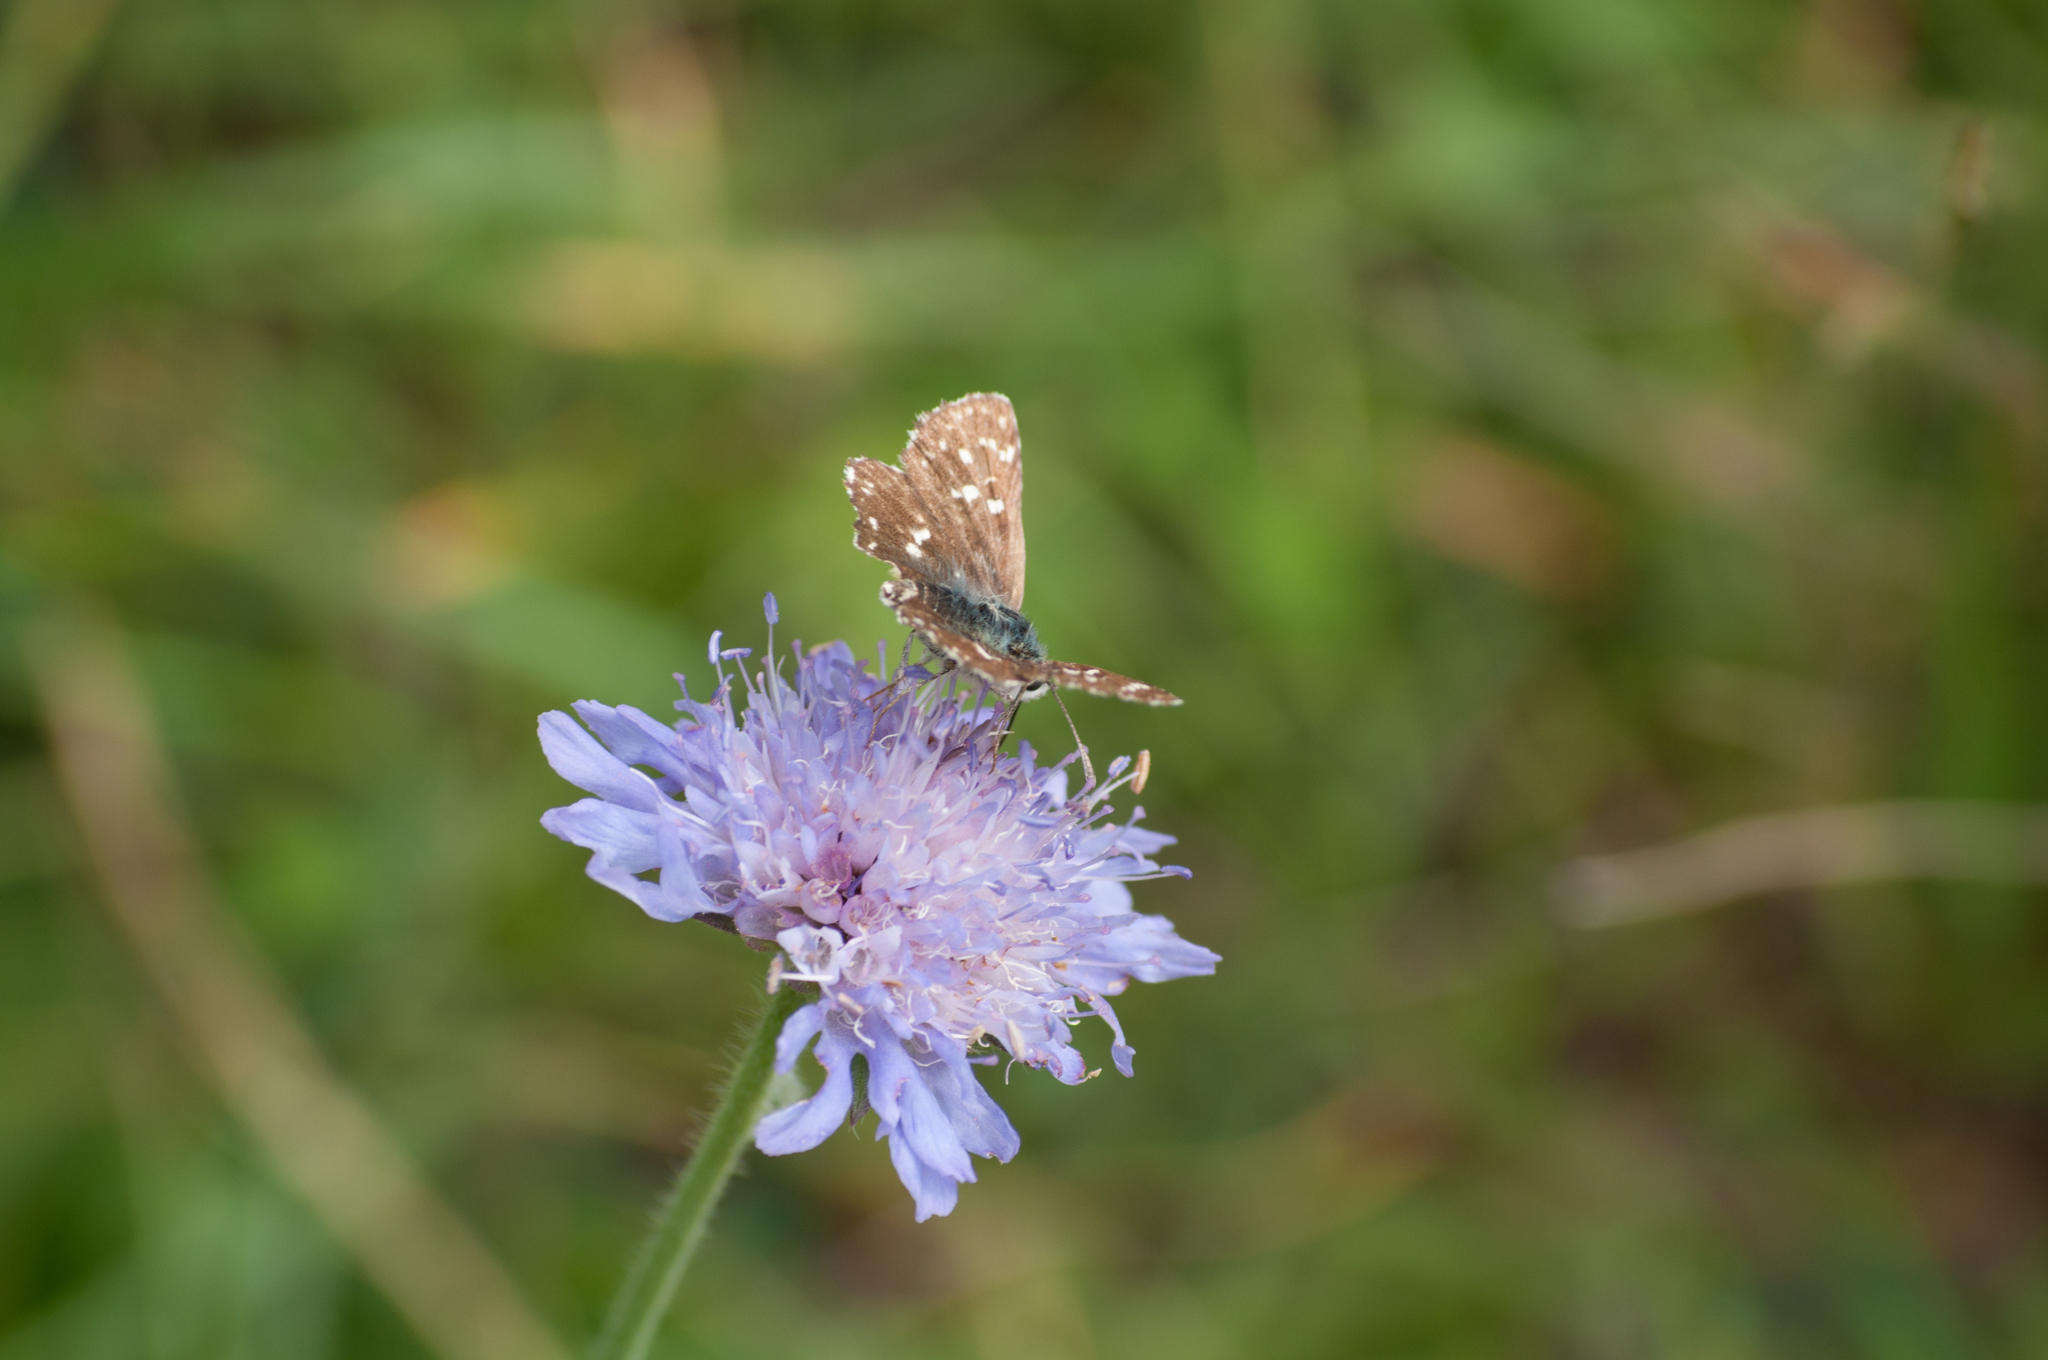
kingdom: Animalia
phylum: Arthropoda
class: Insecta
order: Lepidoptera
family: Hesperiidae
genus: Spialia
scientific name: Spialia sertorius
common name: Red underwing skipper
